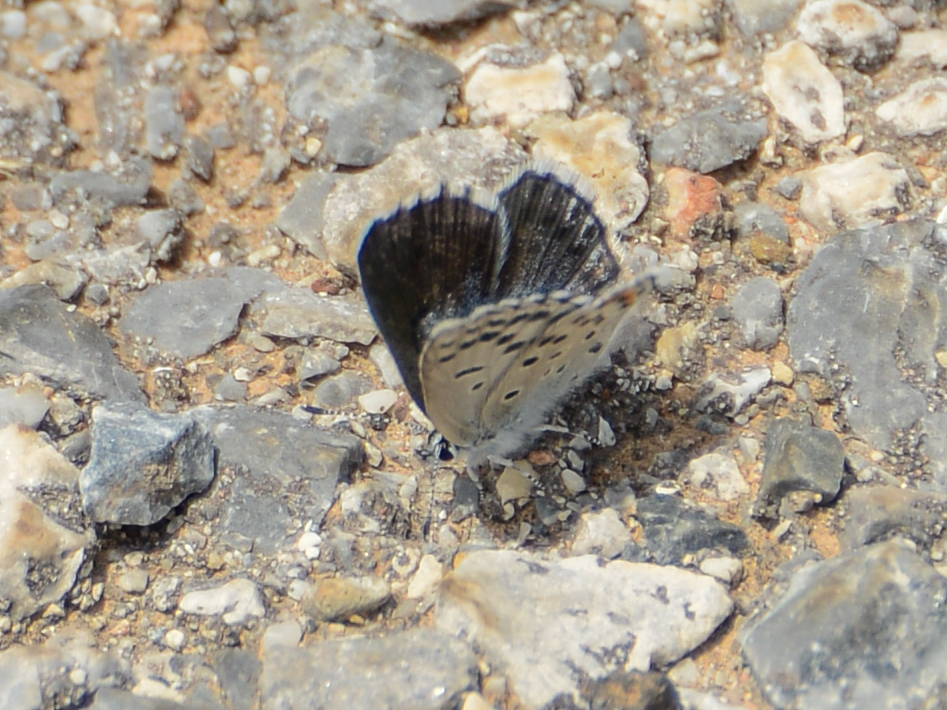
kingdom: Animalia
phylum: Arthropoda
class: Insecta
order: Lepidoptera
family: Lycaenidae
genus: Pseudophilotes
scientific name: Pseudophilotes baton
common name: Baton blue
